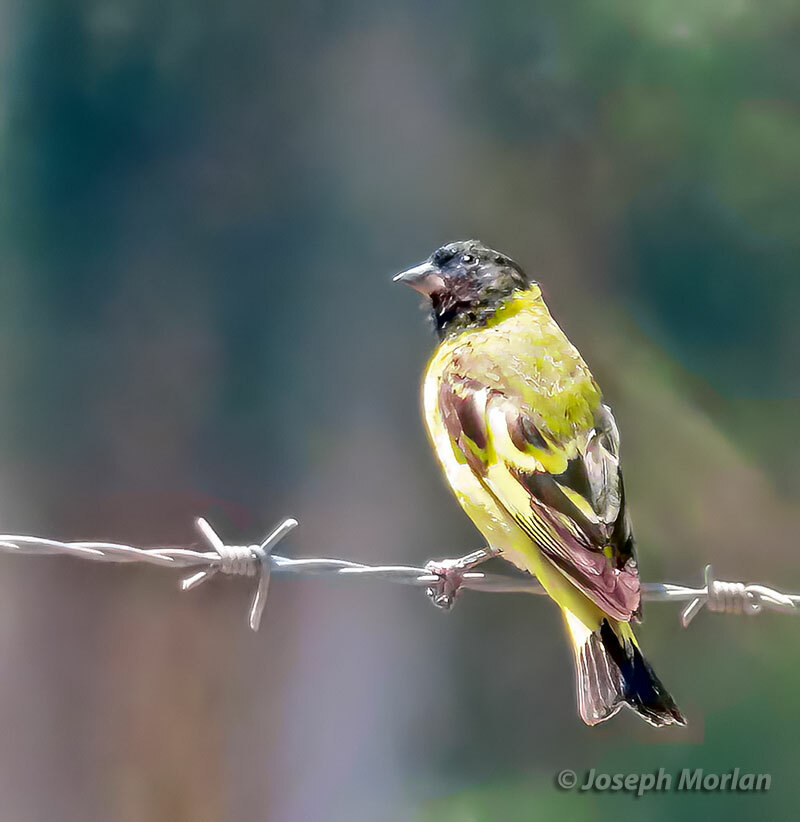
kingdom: Animalia
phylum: Chordata
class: Aves
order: Passeriformes
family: Fringillidae
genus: Spinus
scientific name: Spinus magellanicus
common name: Hooded siskin
